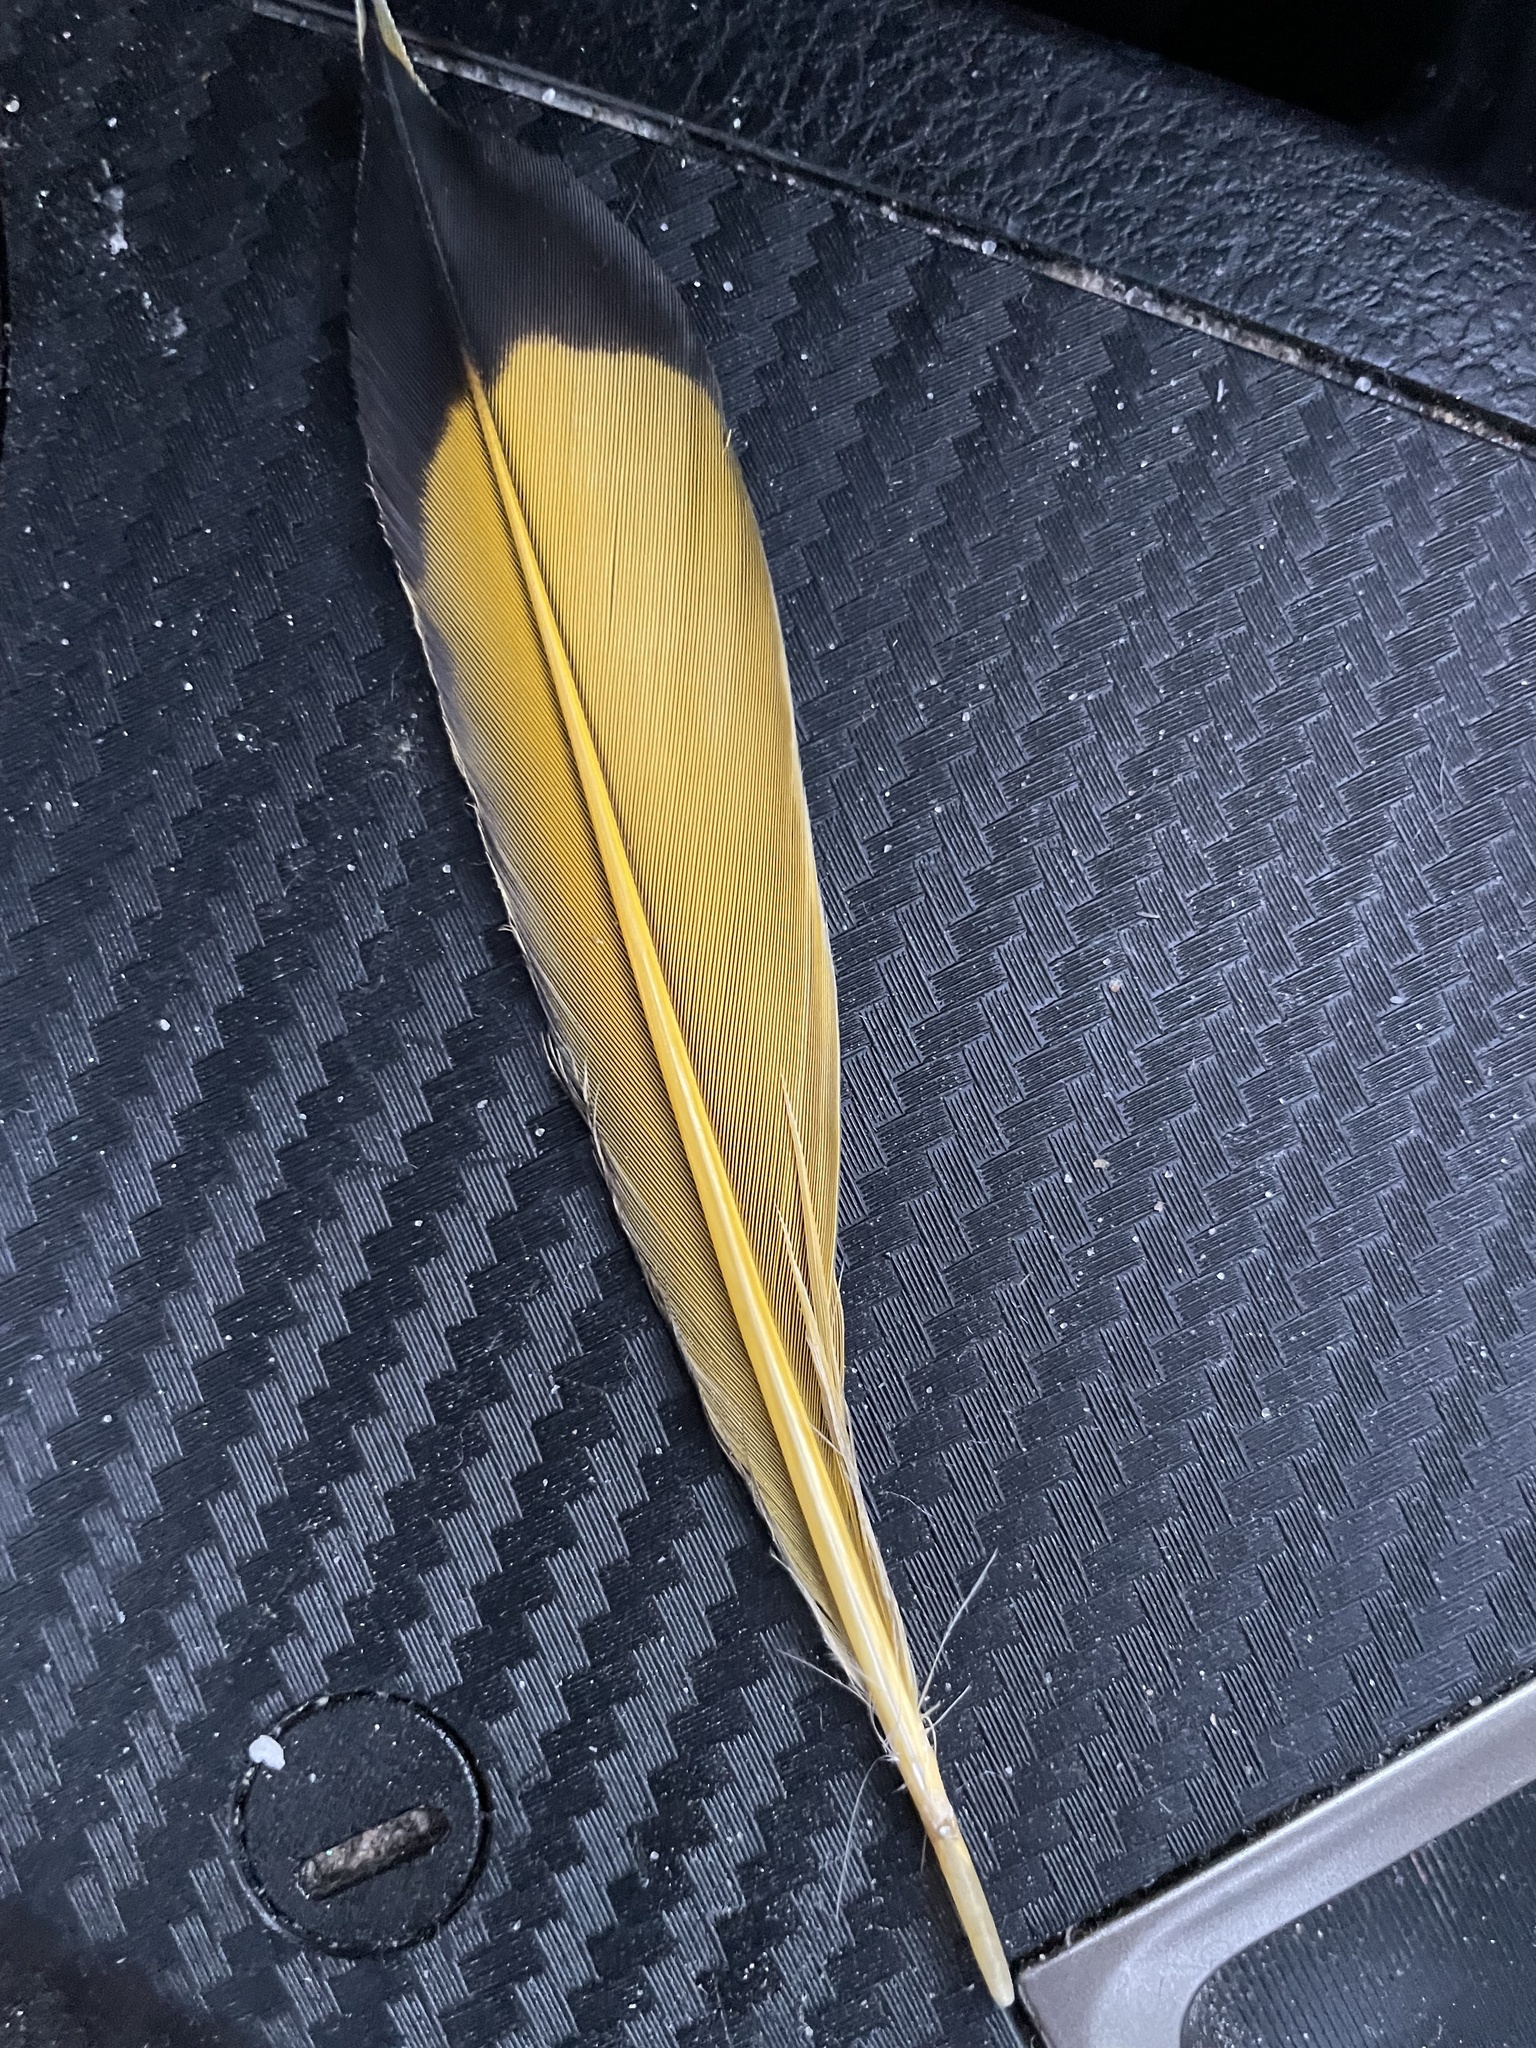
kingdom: Animalia
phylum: Chordata
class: Aves
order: Piciformes
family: Picidae
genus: Colaptes
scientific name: Colaptes auratus
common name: Northern flicker
